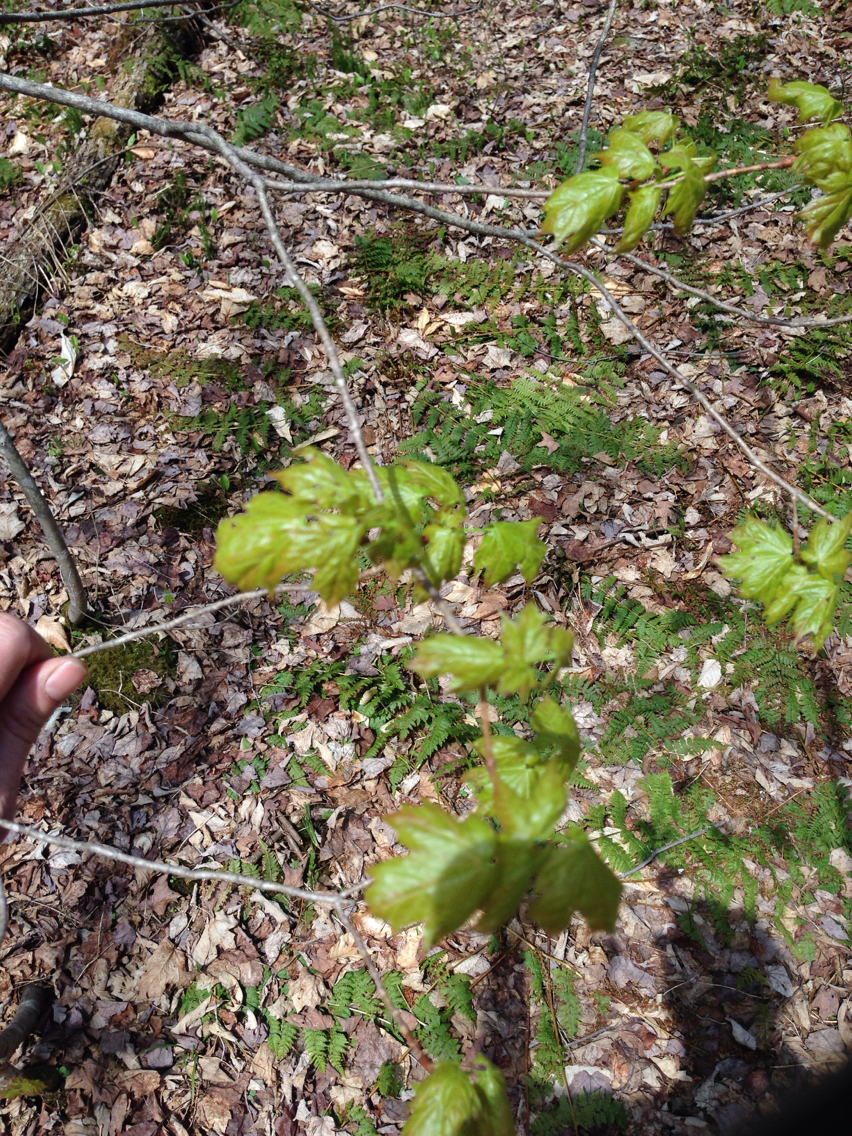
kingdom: Plantae
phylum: Tracheophyta
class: Magnoliopsida
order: Sapindales
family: Sapindaceae
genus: Acer
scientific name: Acer saccharum
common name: Sugar maple
